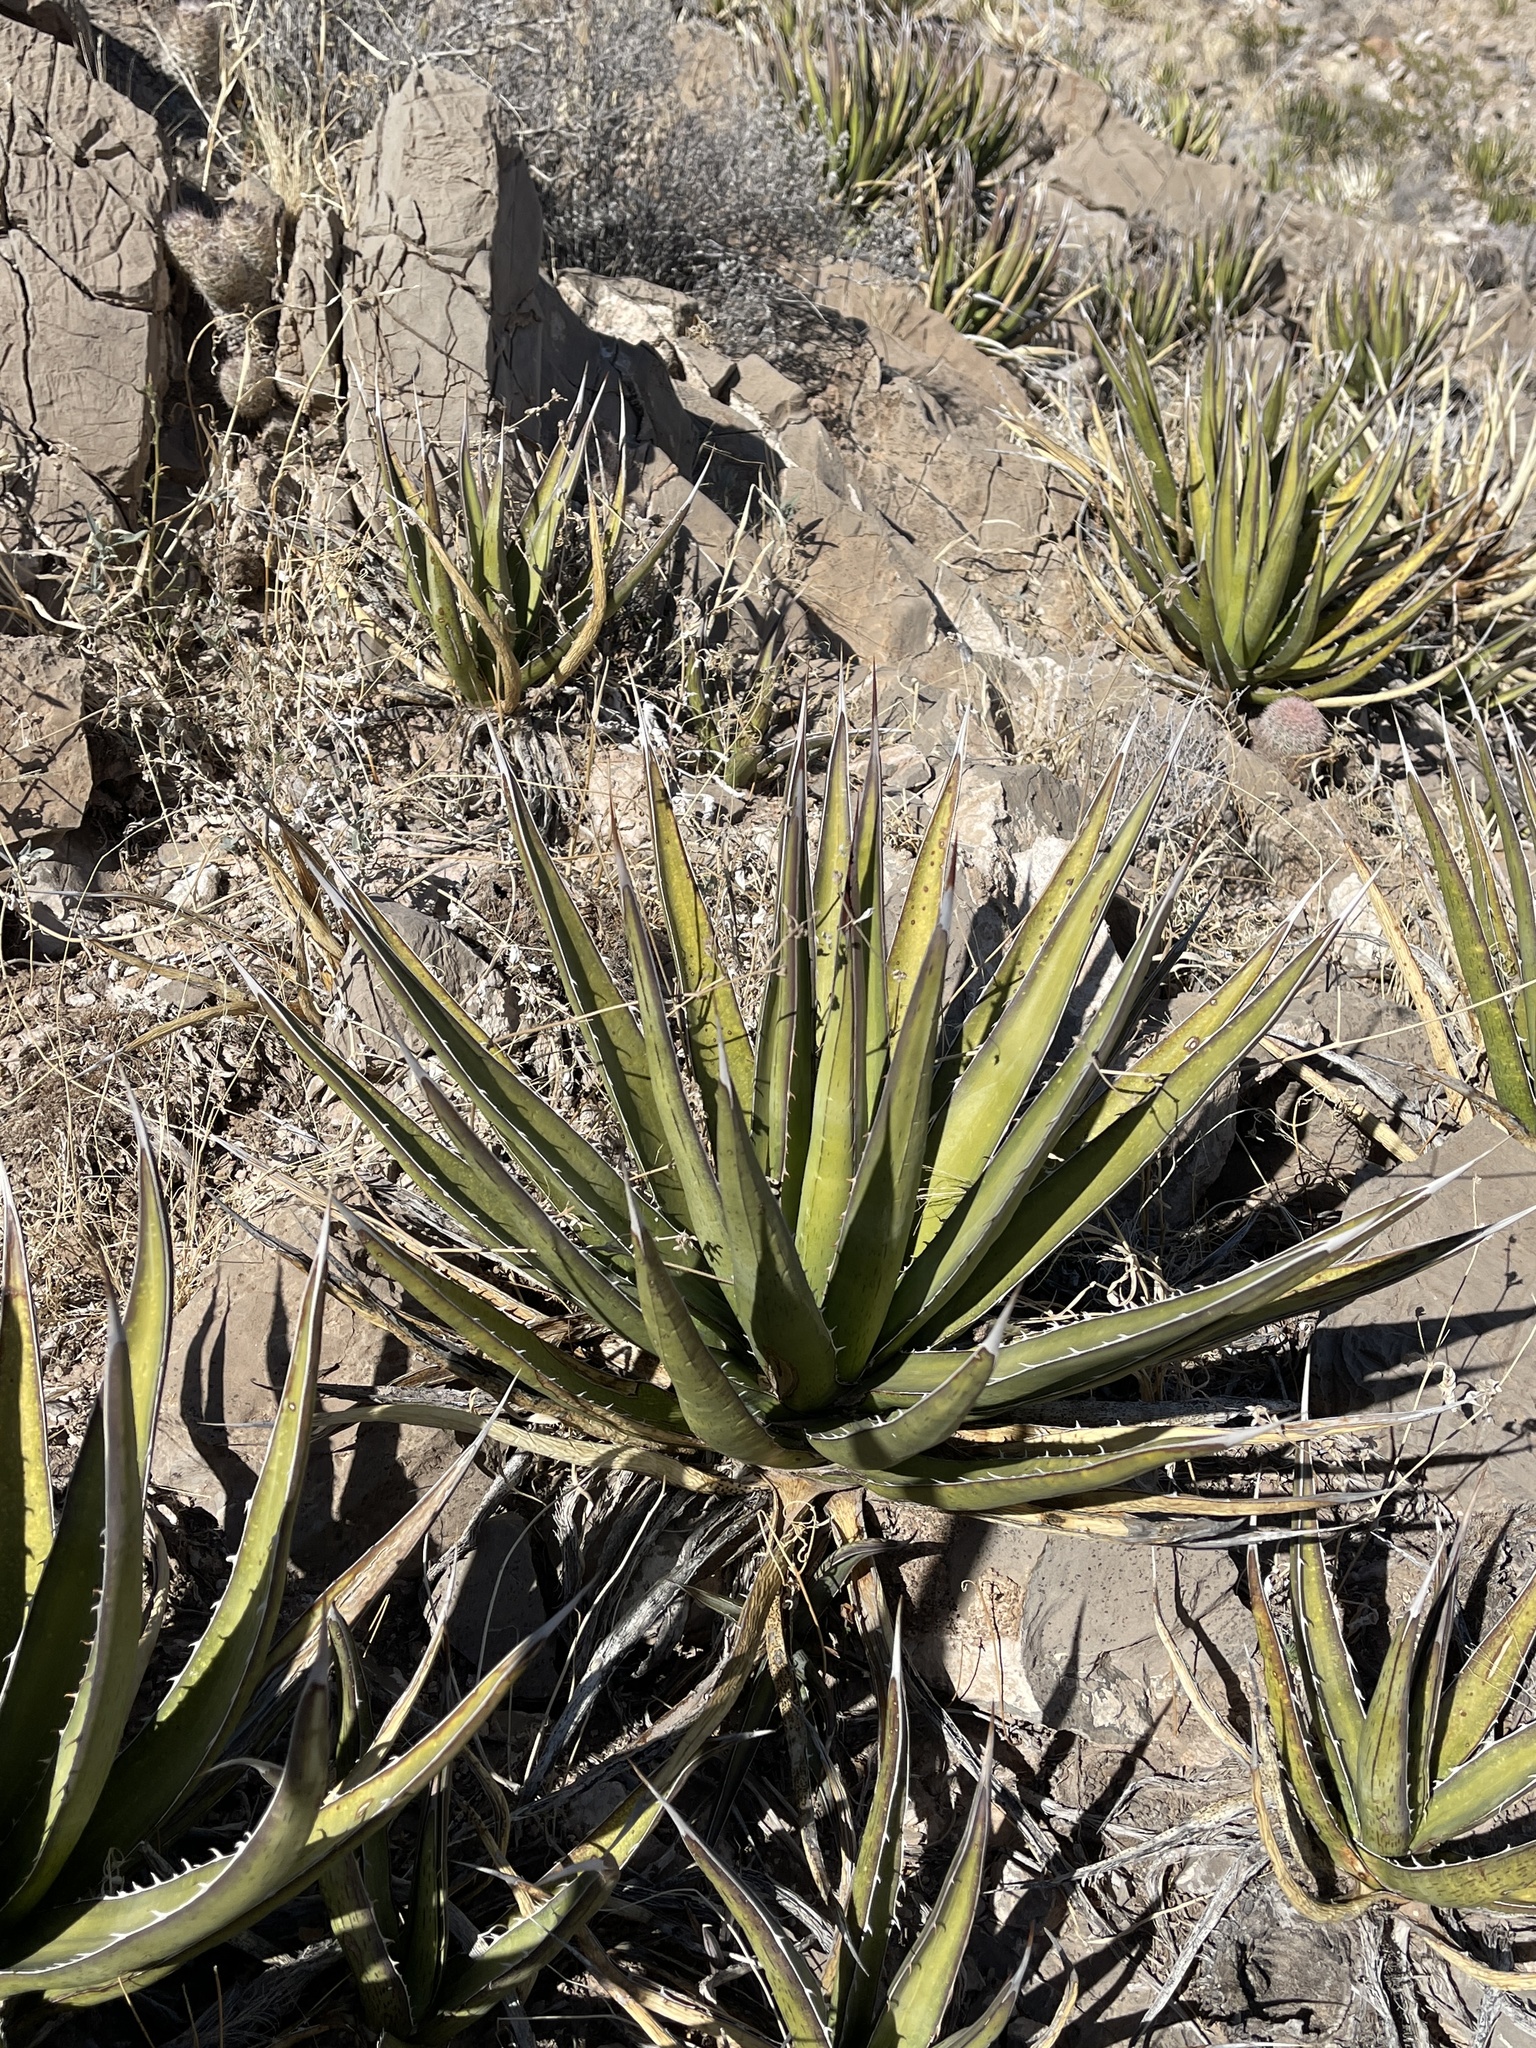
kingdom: Plantae
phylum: Tracheophyta
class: Liliopsida
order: Asparagales
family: Asparagaceae
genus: Agave
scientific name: Agave lechuguilla
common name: Lecheguilla agave
